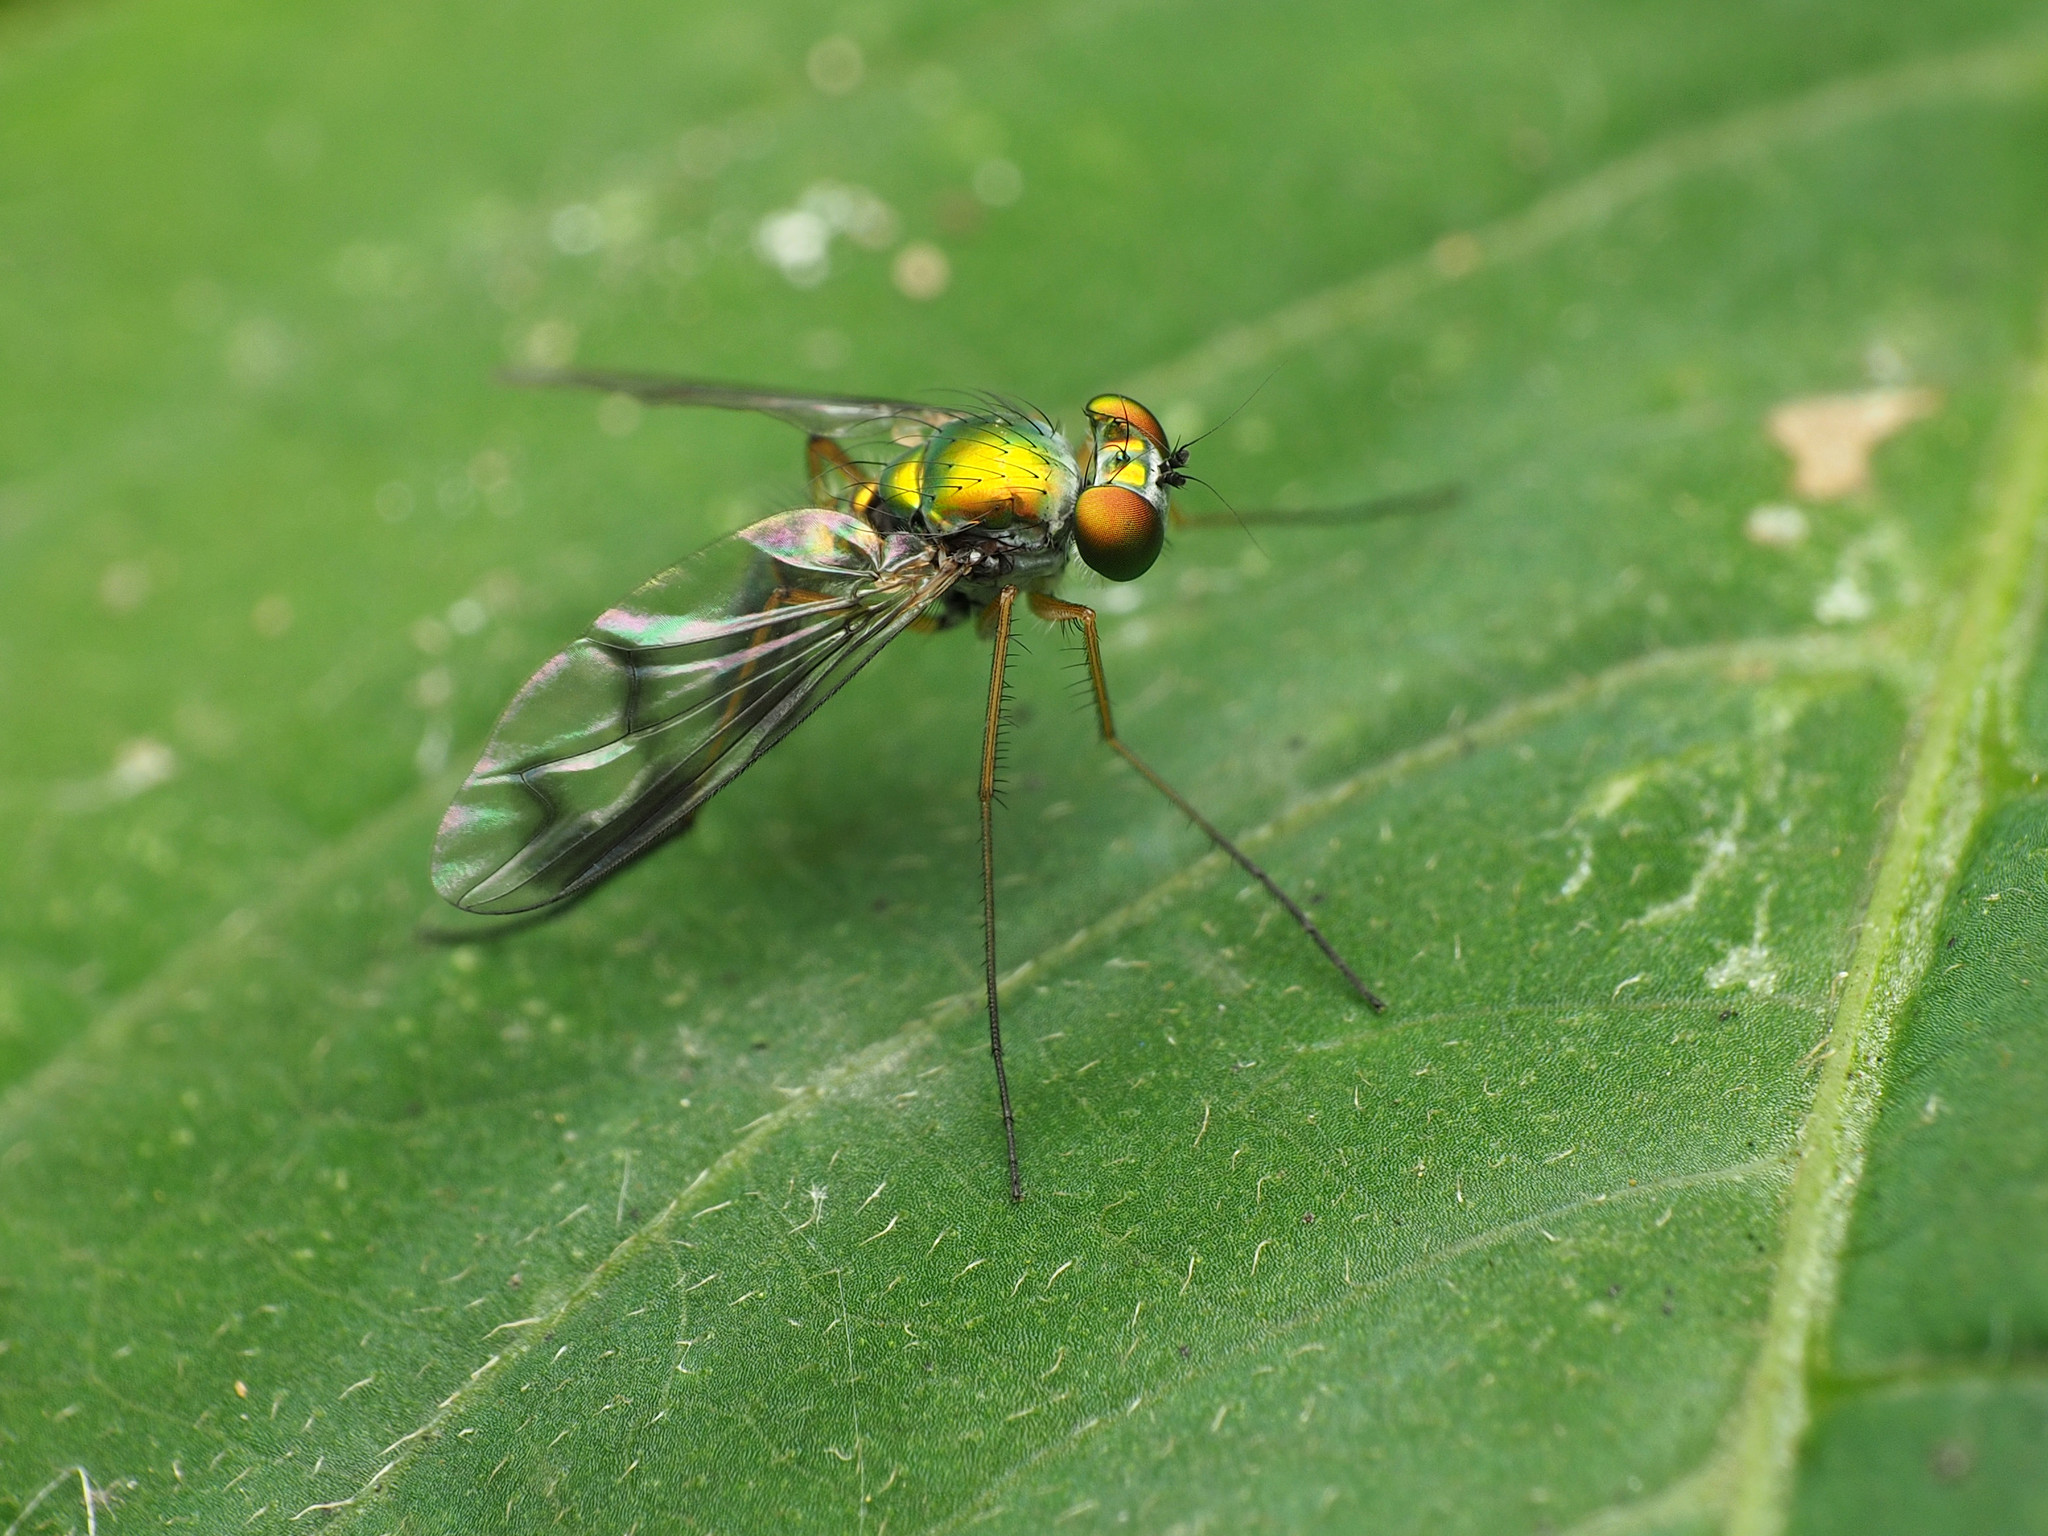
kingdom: Animalia
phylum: Arthropoda
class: Insecta
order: Diptera
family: Dolichopodidae
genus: Condylostylus
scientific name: Condylostylus sipho
